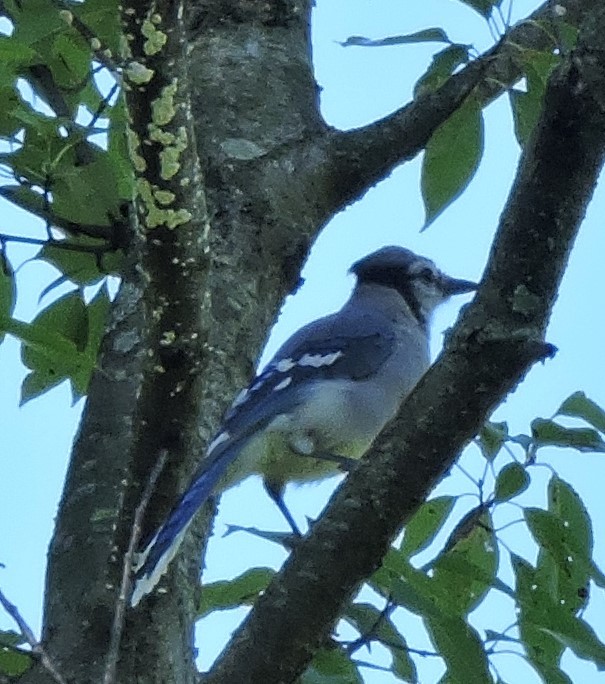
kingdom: Animalia
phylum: Chordata
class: Aves
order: Passeriformes
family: Corvidae
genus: Cyanocitta
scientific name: Cyanocitta cristata
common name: Blue jay
